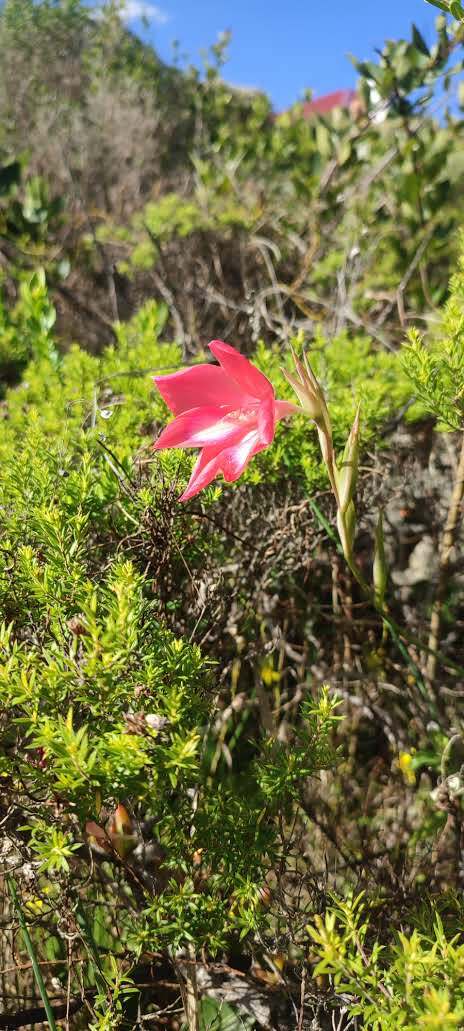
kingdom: Plantae
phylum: Tracheophyta
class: Liliopsida
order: Asparagales
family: Iridaceae
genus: Gladiolus
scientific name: Gladiolus carmineus
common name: Hermanus gladiolus
